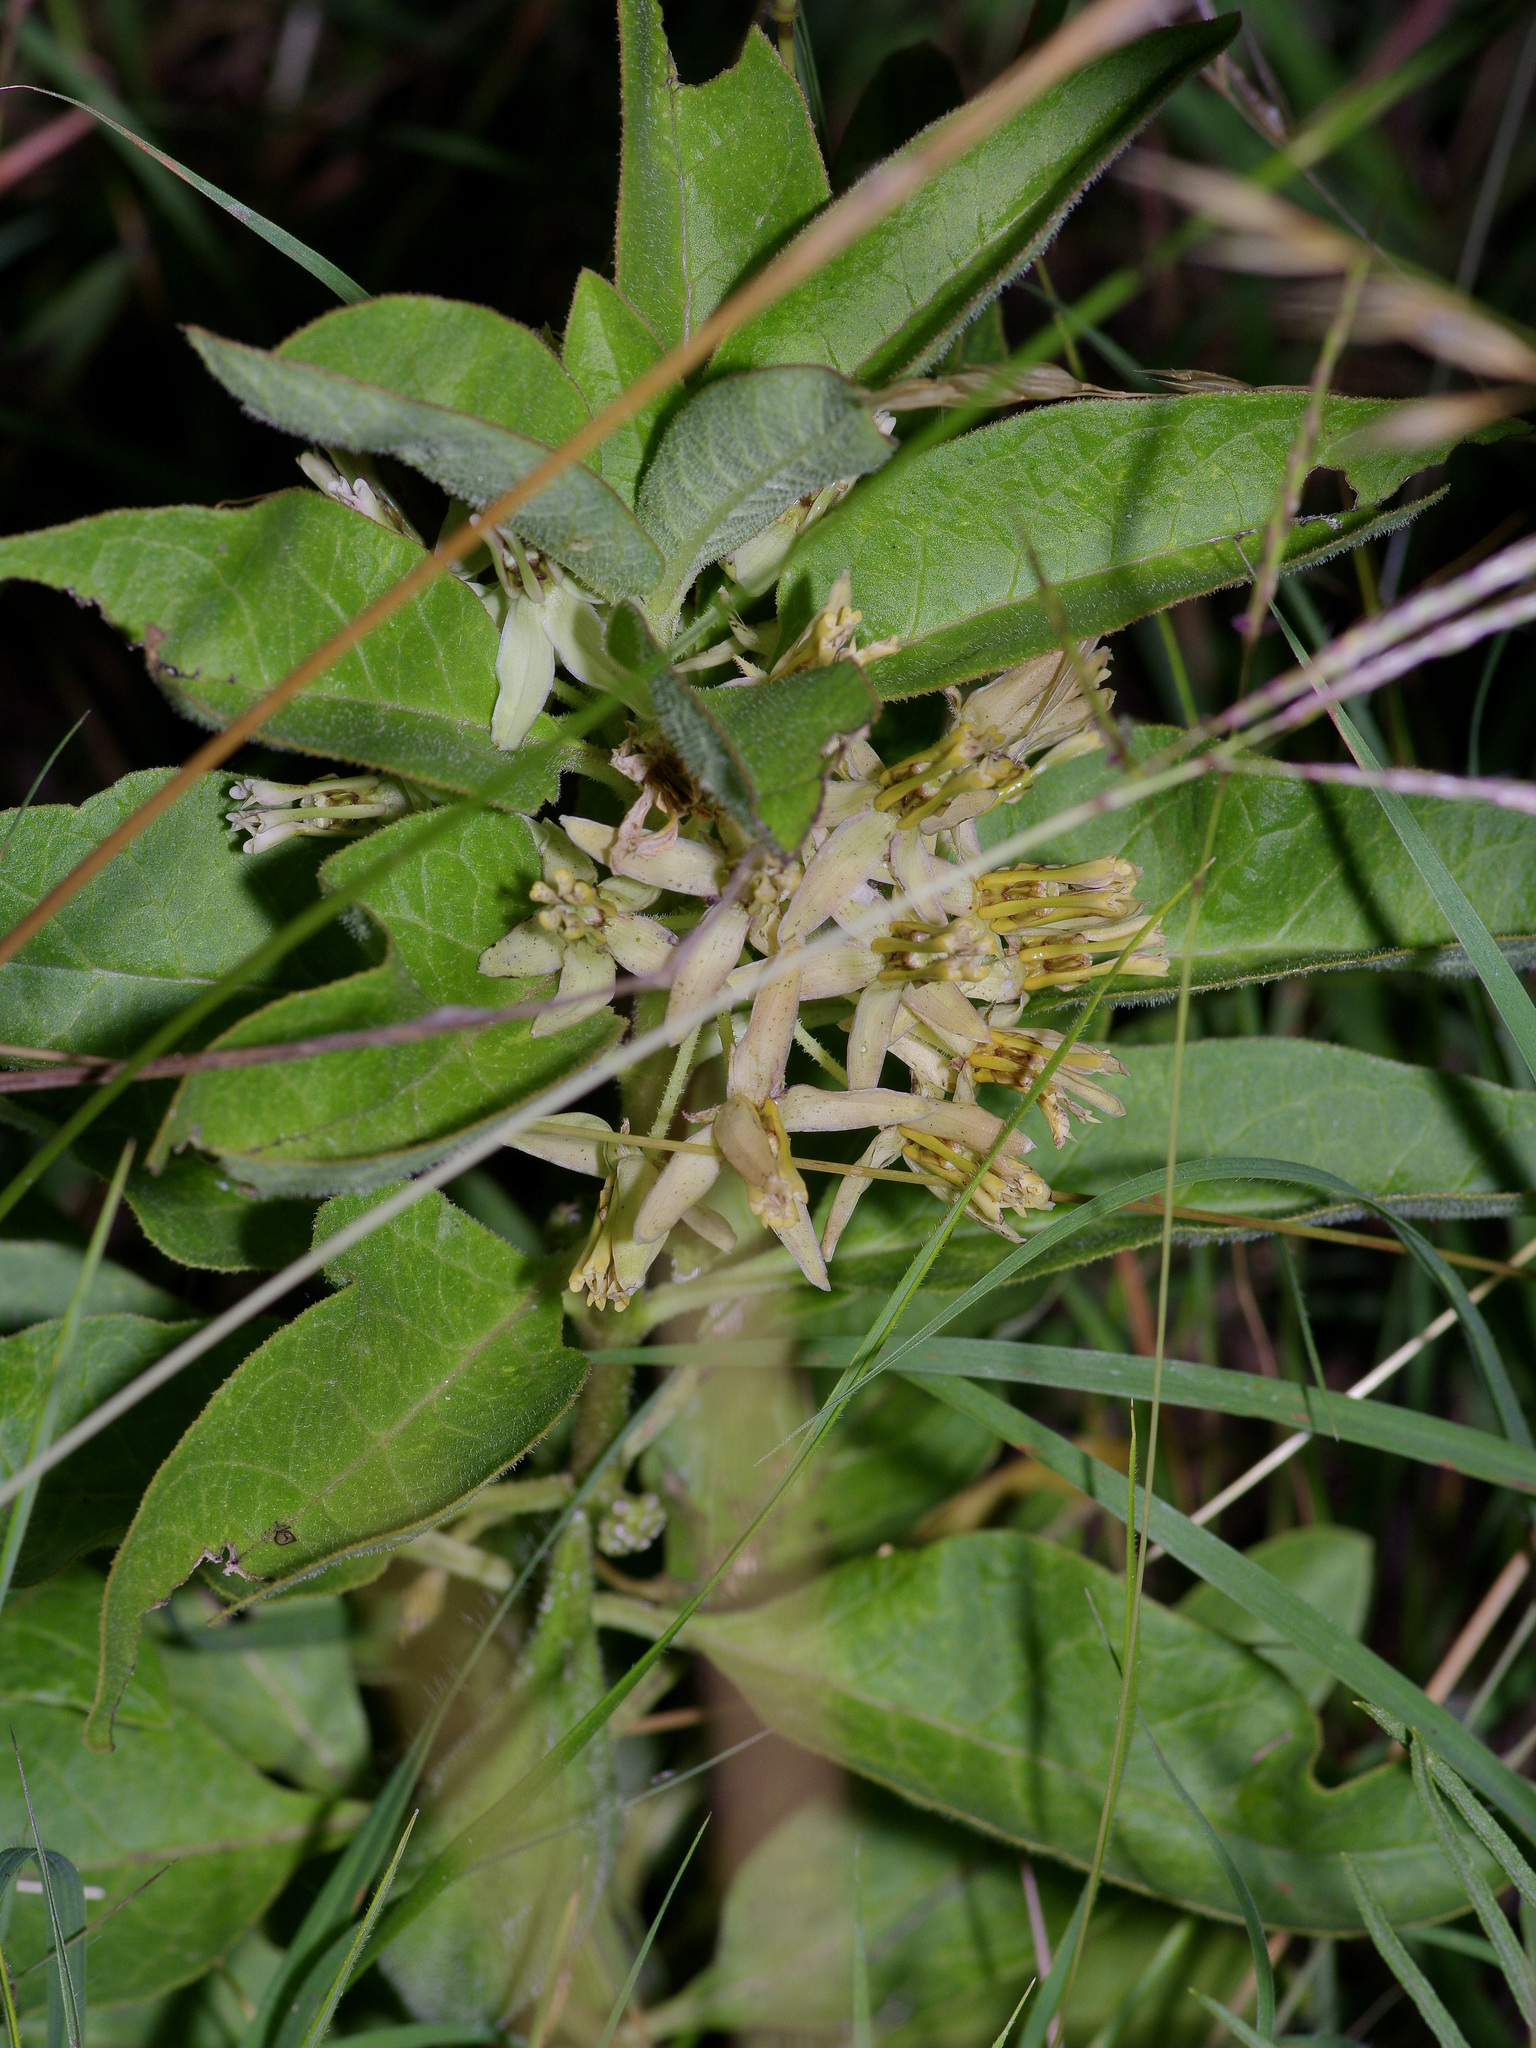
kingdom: Plantae
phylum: Tracheophyta
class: Magnoliopsida
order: Gentianales
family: Apocynaceae
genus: Asclepias
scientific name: Asclepias oenotheroides
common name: Zizotes milkweed
